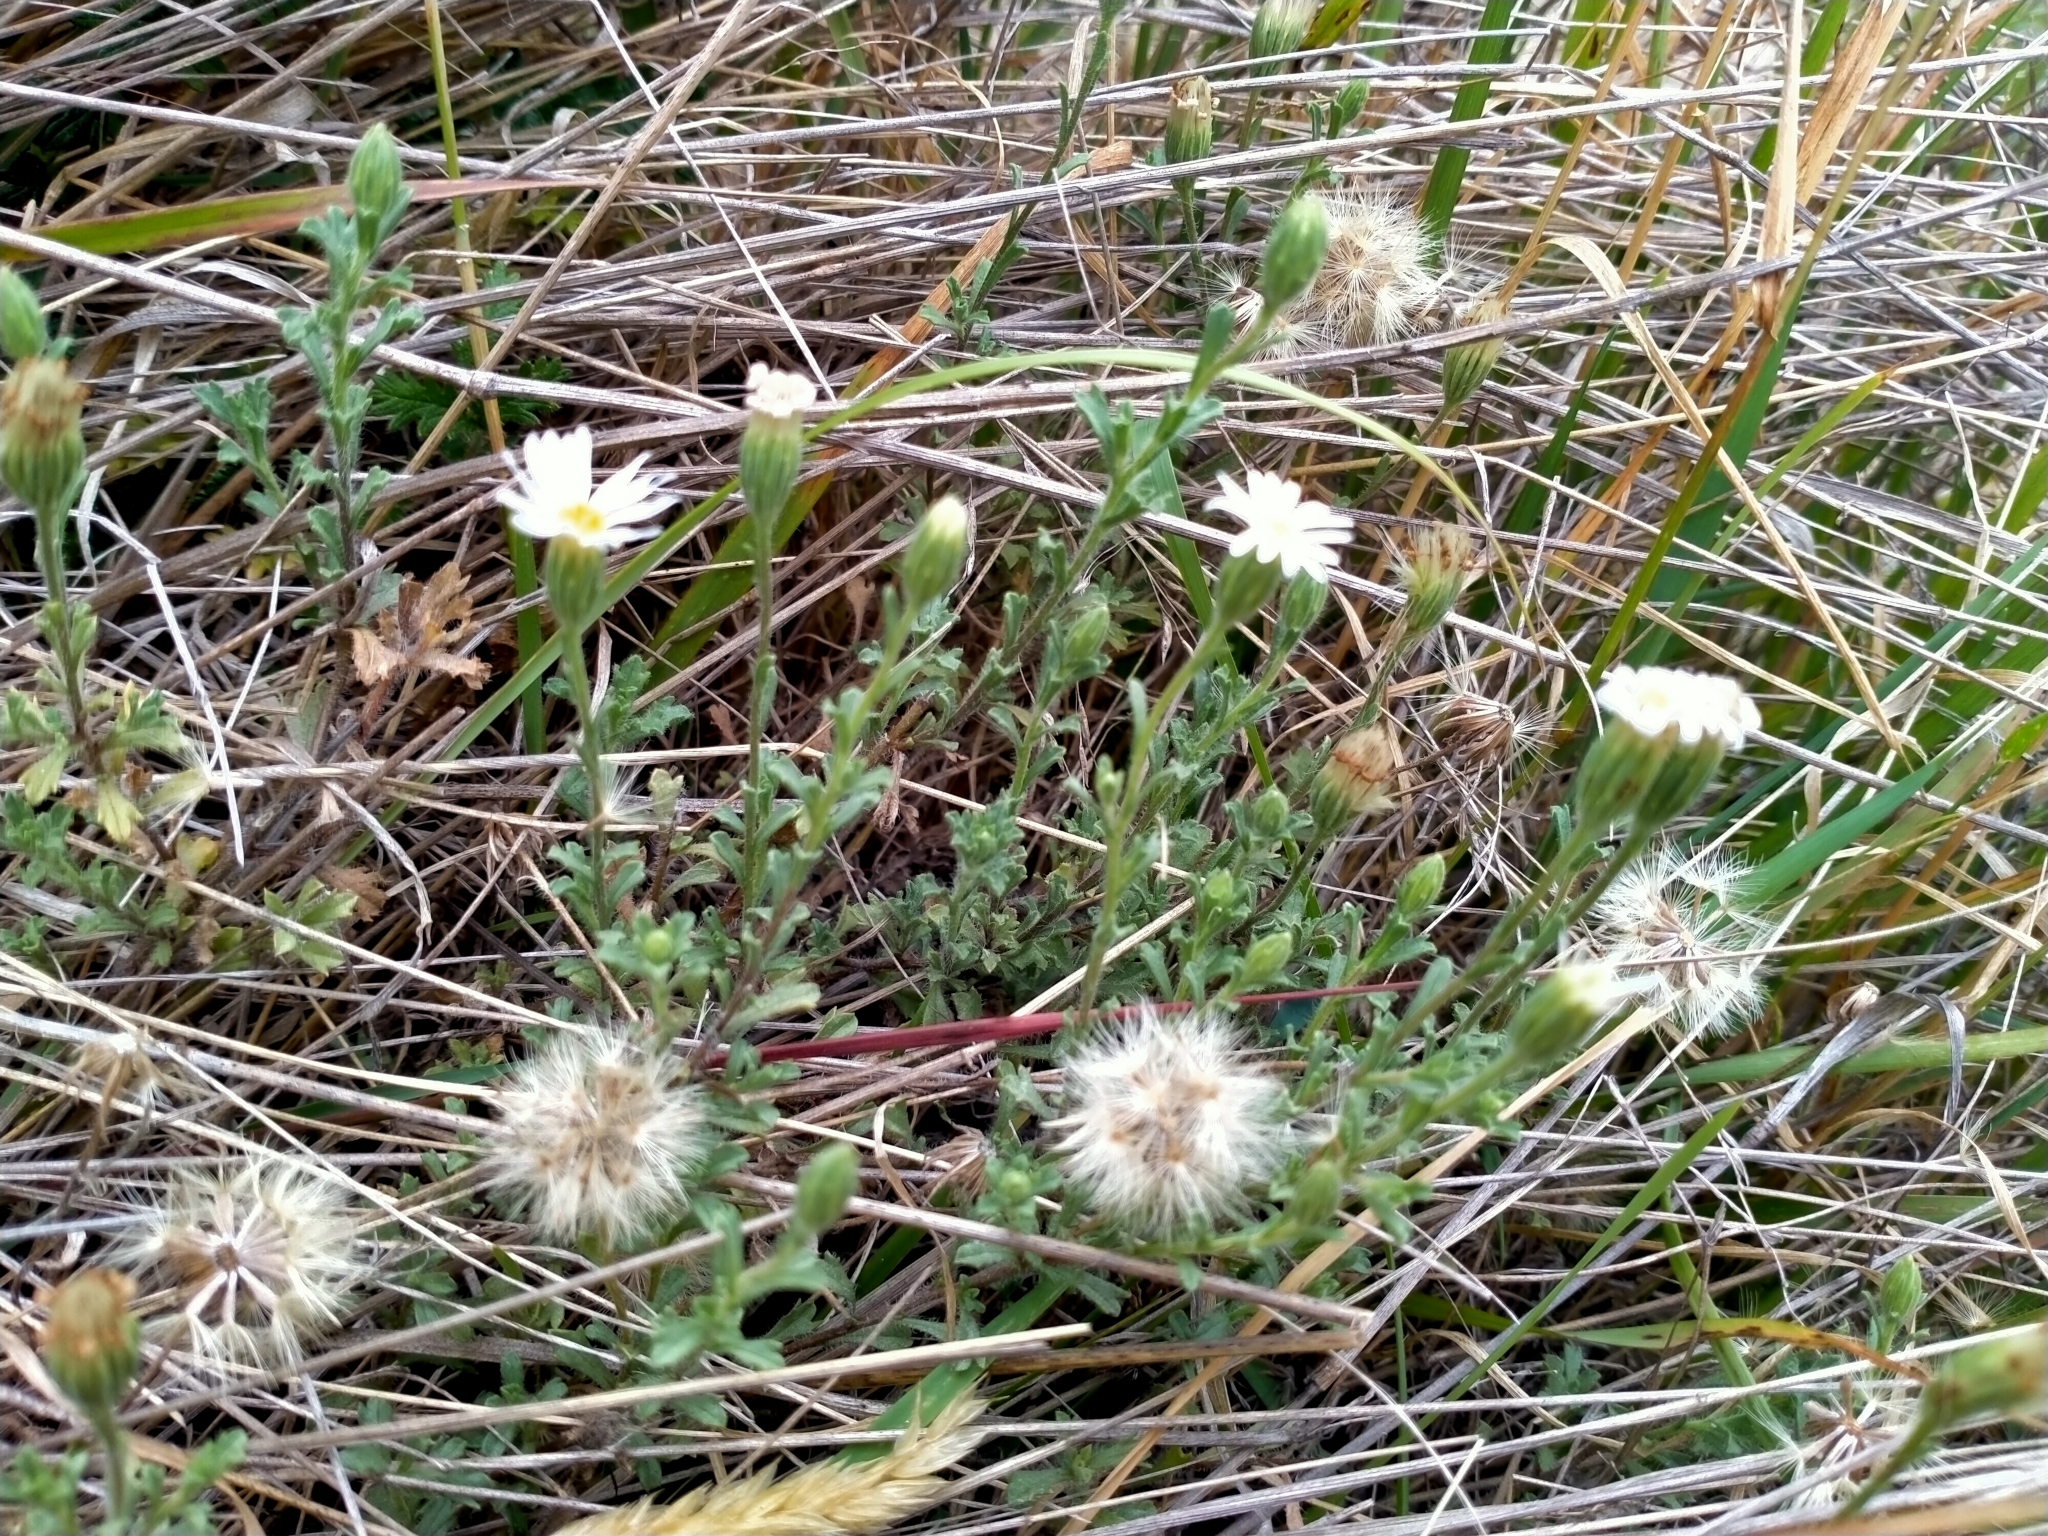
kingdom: Plantae
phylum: Tracheophyta
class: Magnoliopsida
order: Asterales
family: Asteraceae
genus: Vittadinia
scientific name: Vittadinia australis
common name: White fuzzweed
